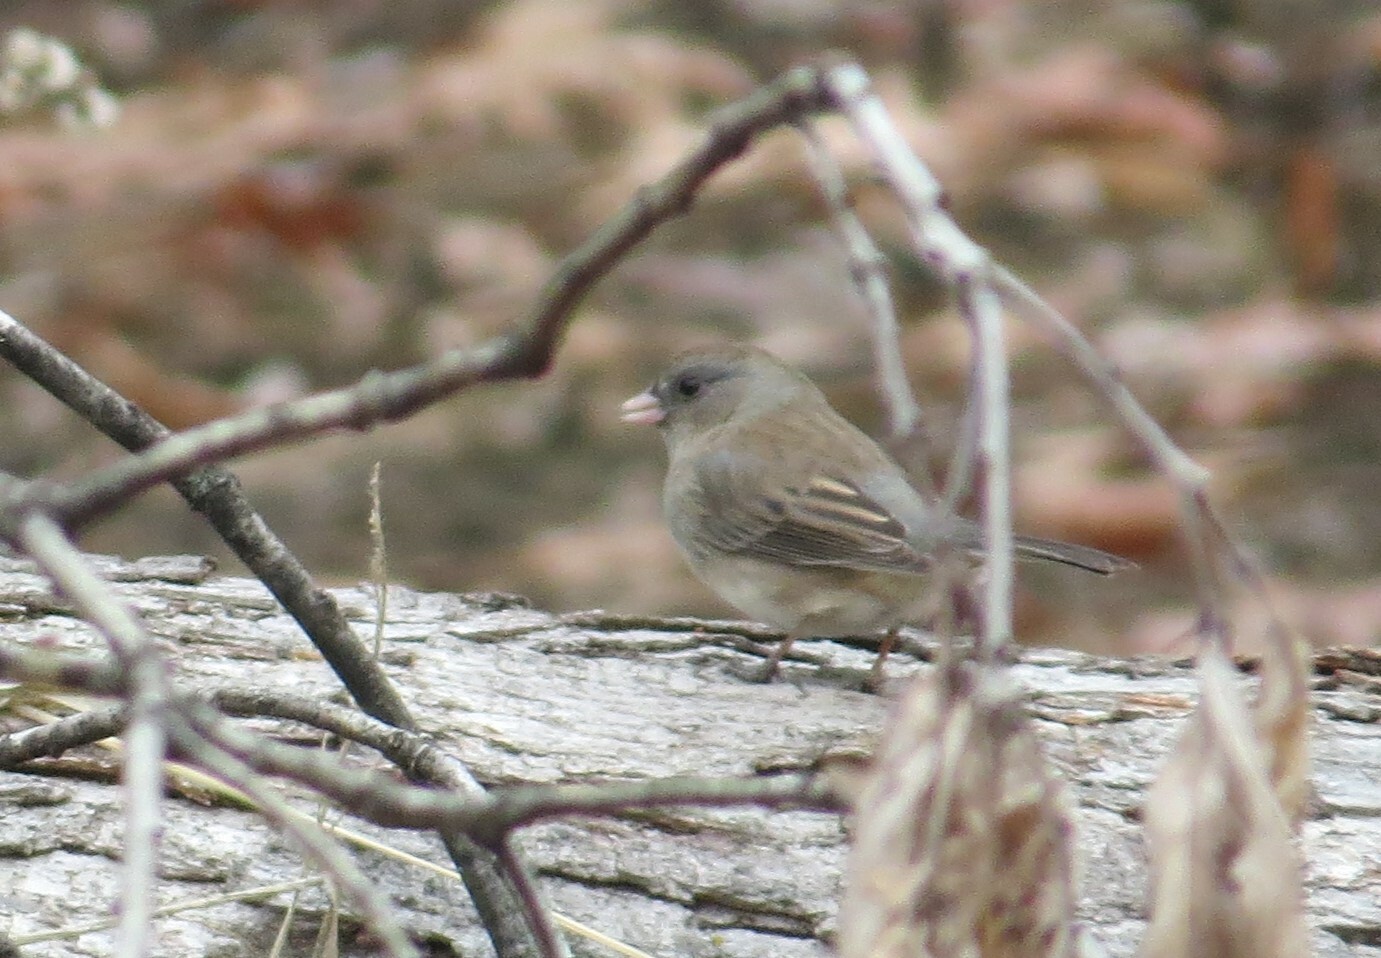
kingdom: Animalia
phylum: Chordata
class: Aves
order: Passeriformes
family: Passerellidae
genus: Junco
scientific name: Junco hyemalis
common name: Dark-eyed junco
